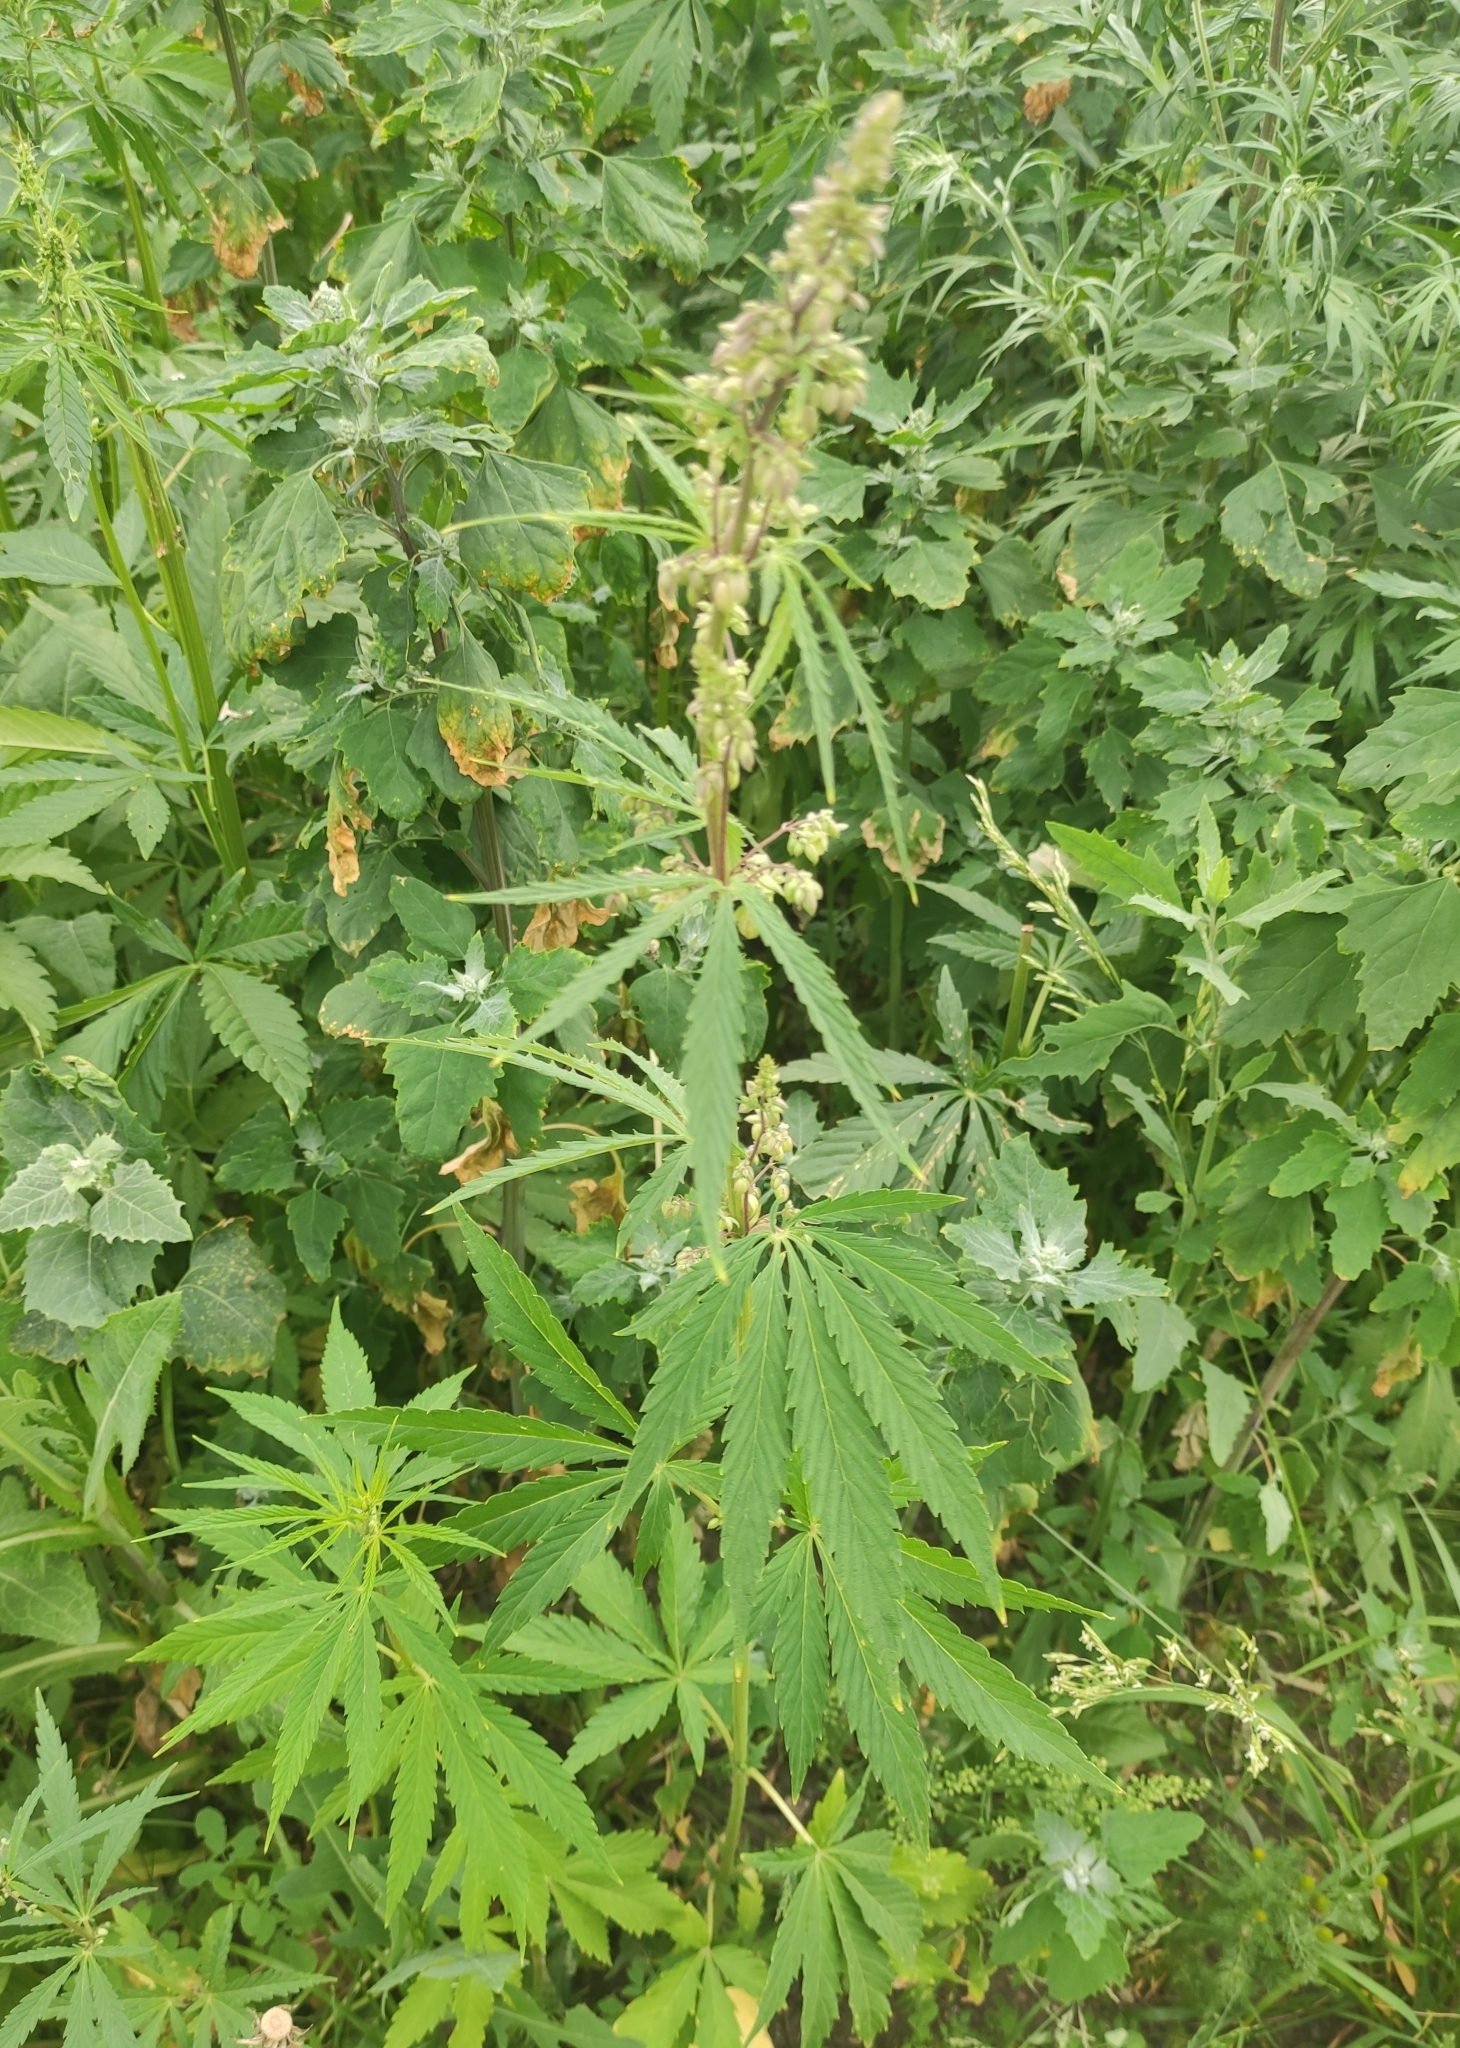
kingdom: Plantae
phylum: Tracheophyta
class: Magnoliopsida
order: Rosales
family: Cannabaceae
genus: Cannabis
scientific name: Cannabis sativa
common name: Hemp
